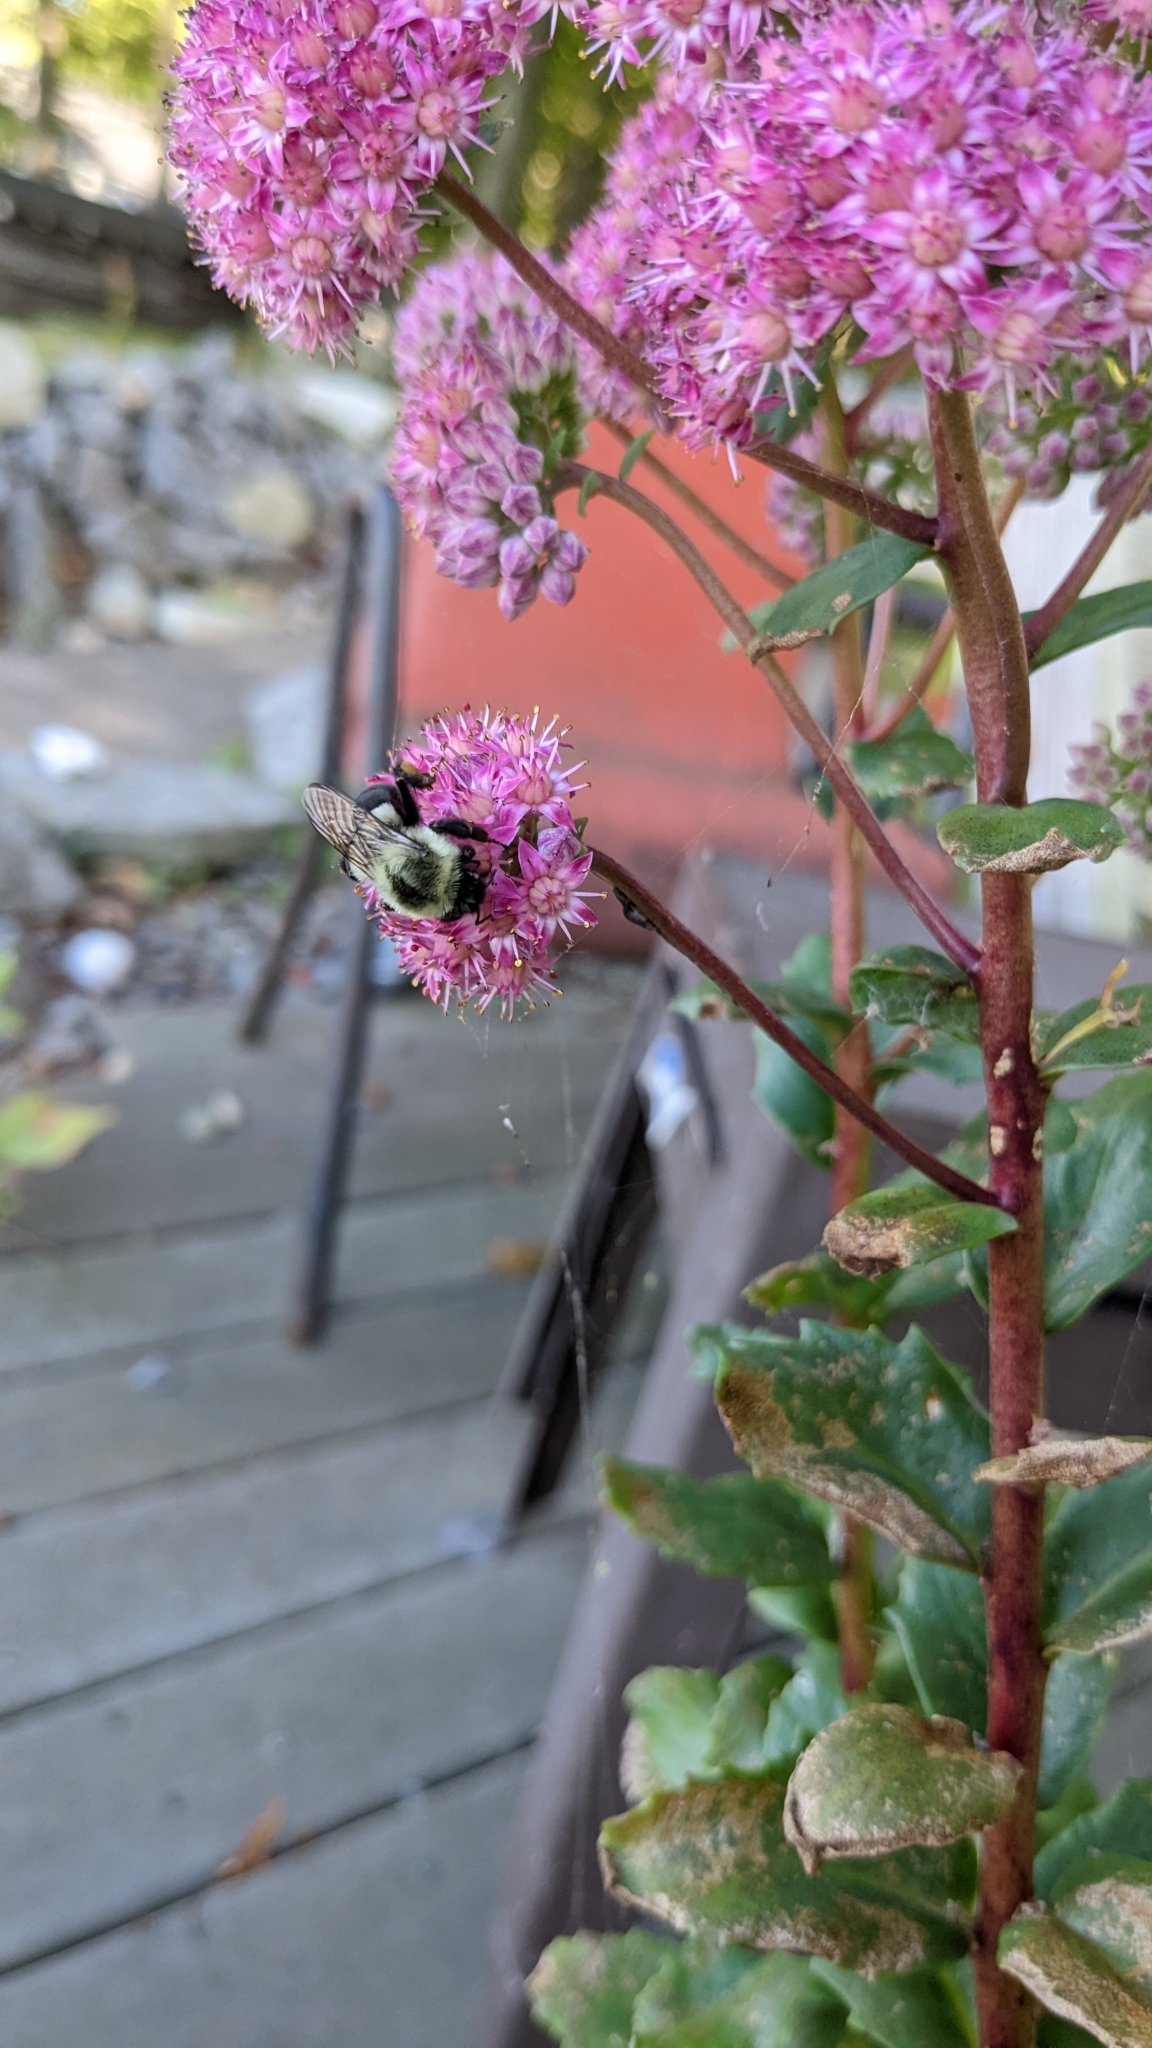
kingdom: Animalia
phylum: Arthropoda
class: Insecta
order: Hymenoptera
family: Apidae
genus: Bombus
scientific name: Bombus impatiens
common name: Common eastern bumble bee
